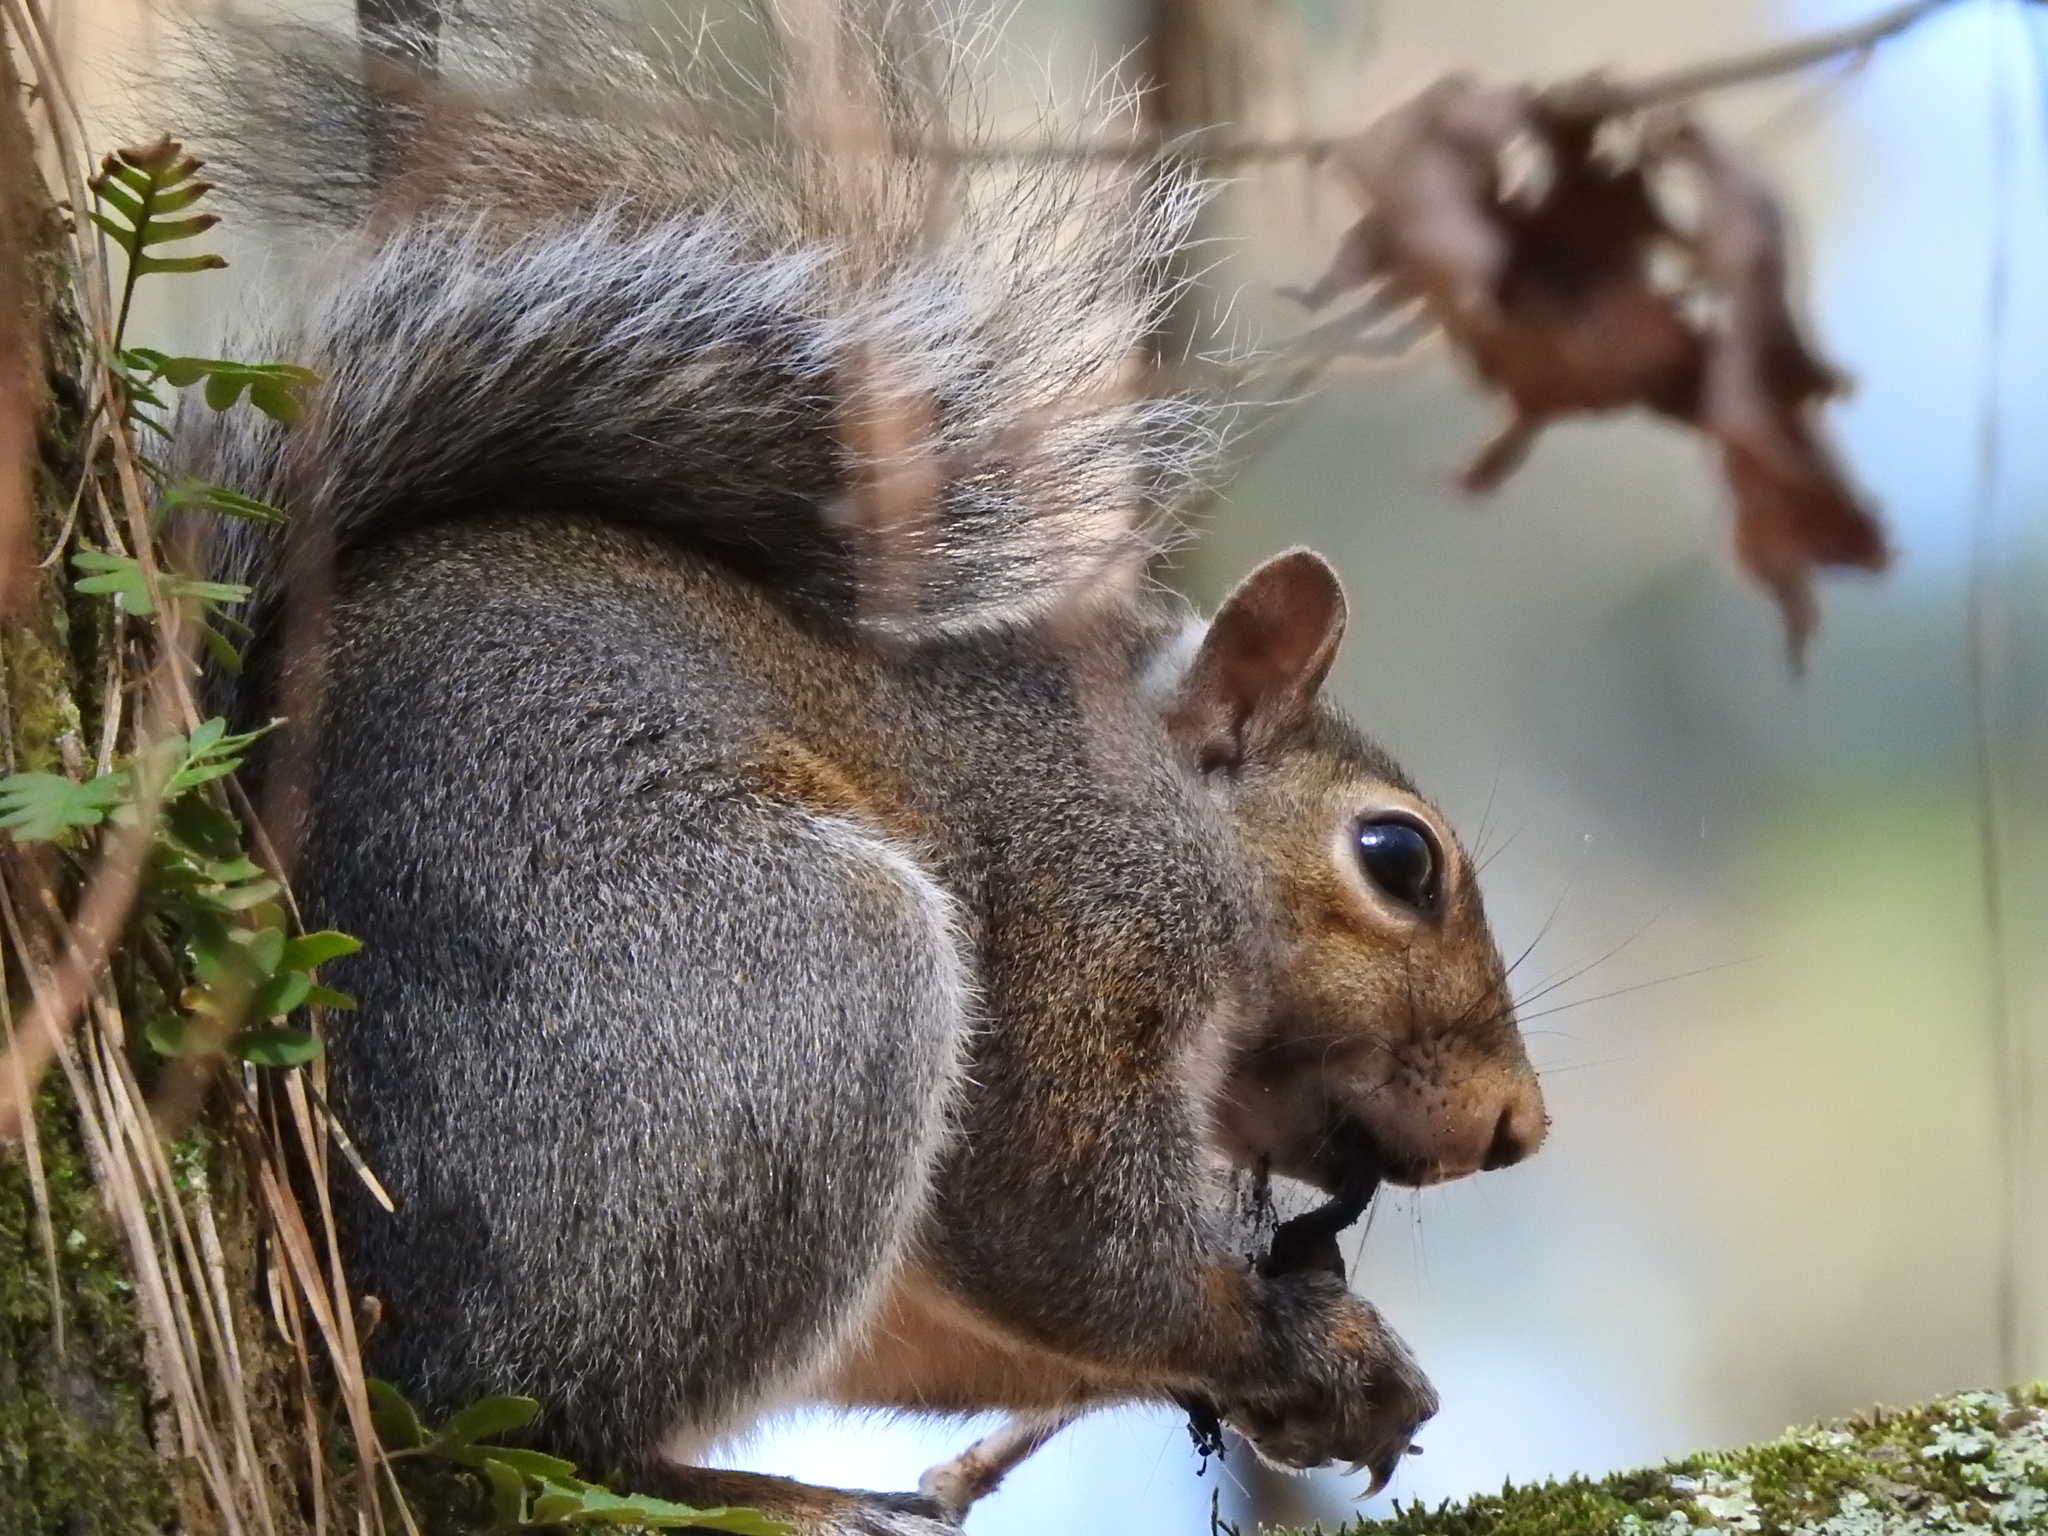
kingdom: Animalia
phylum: Chordata
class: Mammalia
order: Rodentia
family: Sciuridae
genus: Sciurus
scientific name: Sciurus carolinensis
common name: Eastern gray squirrel
